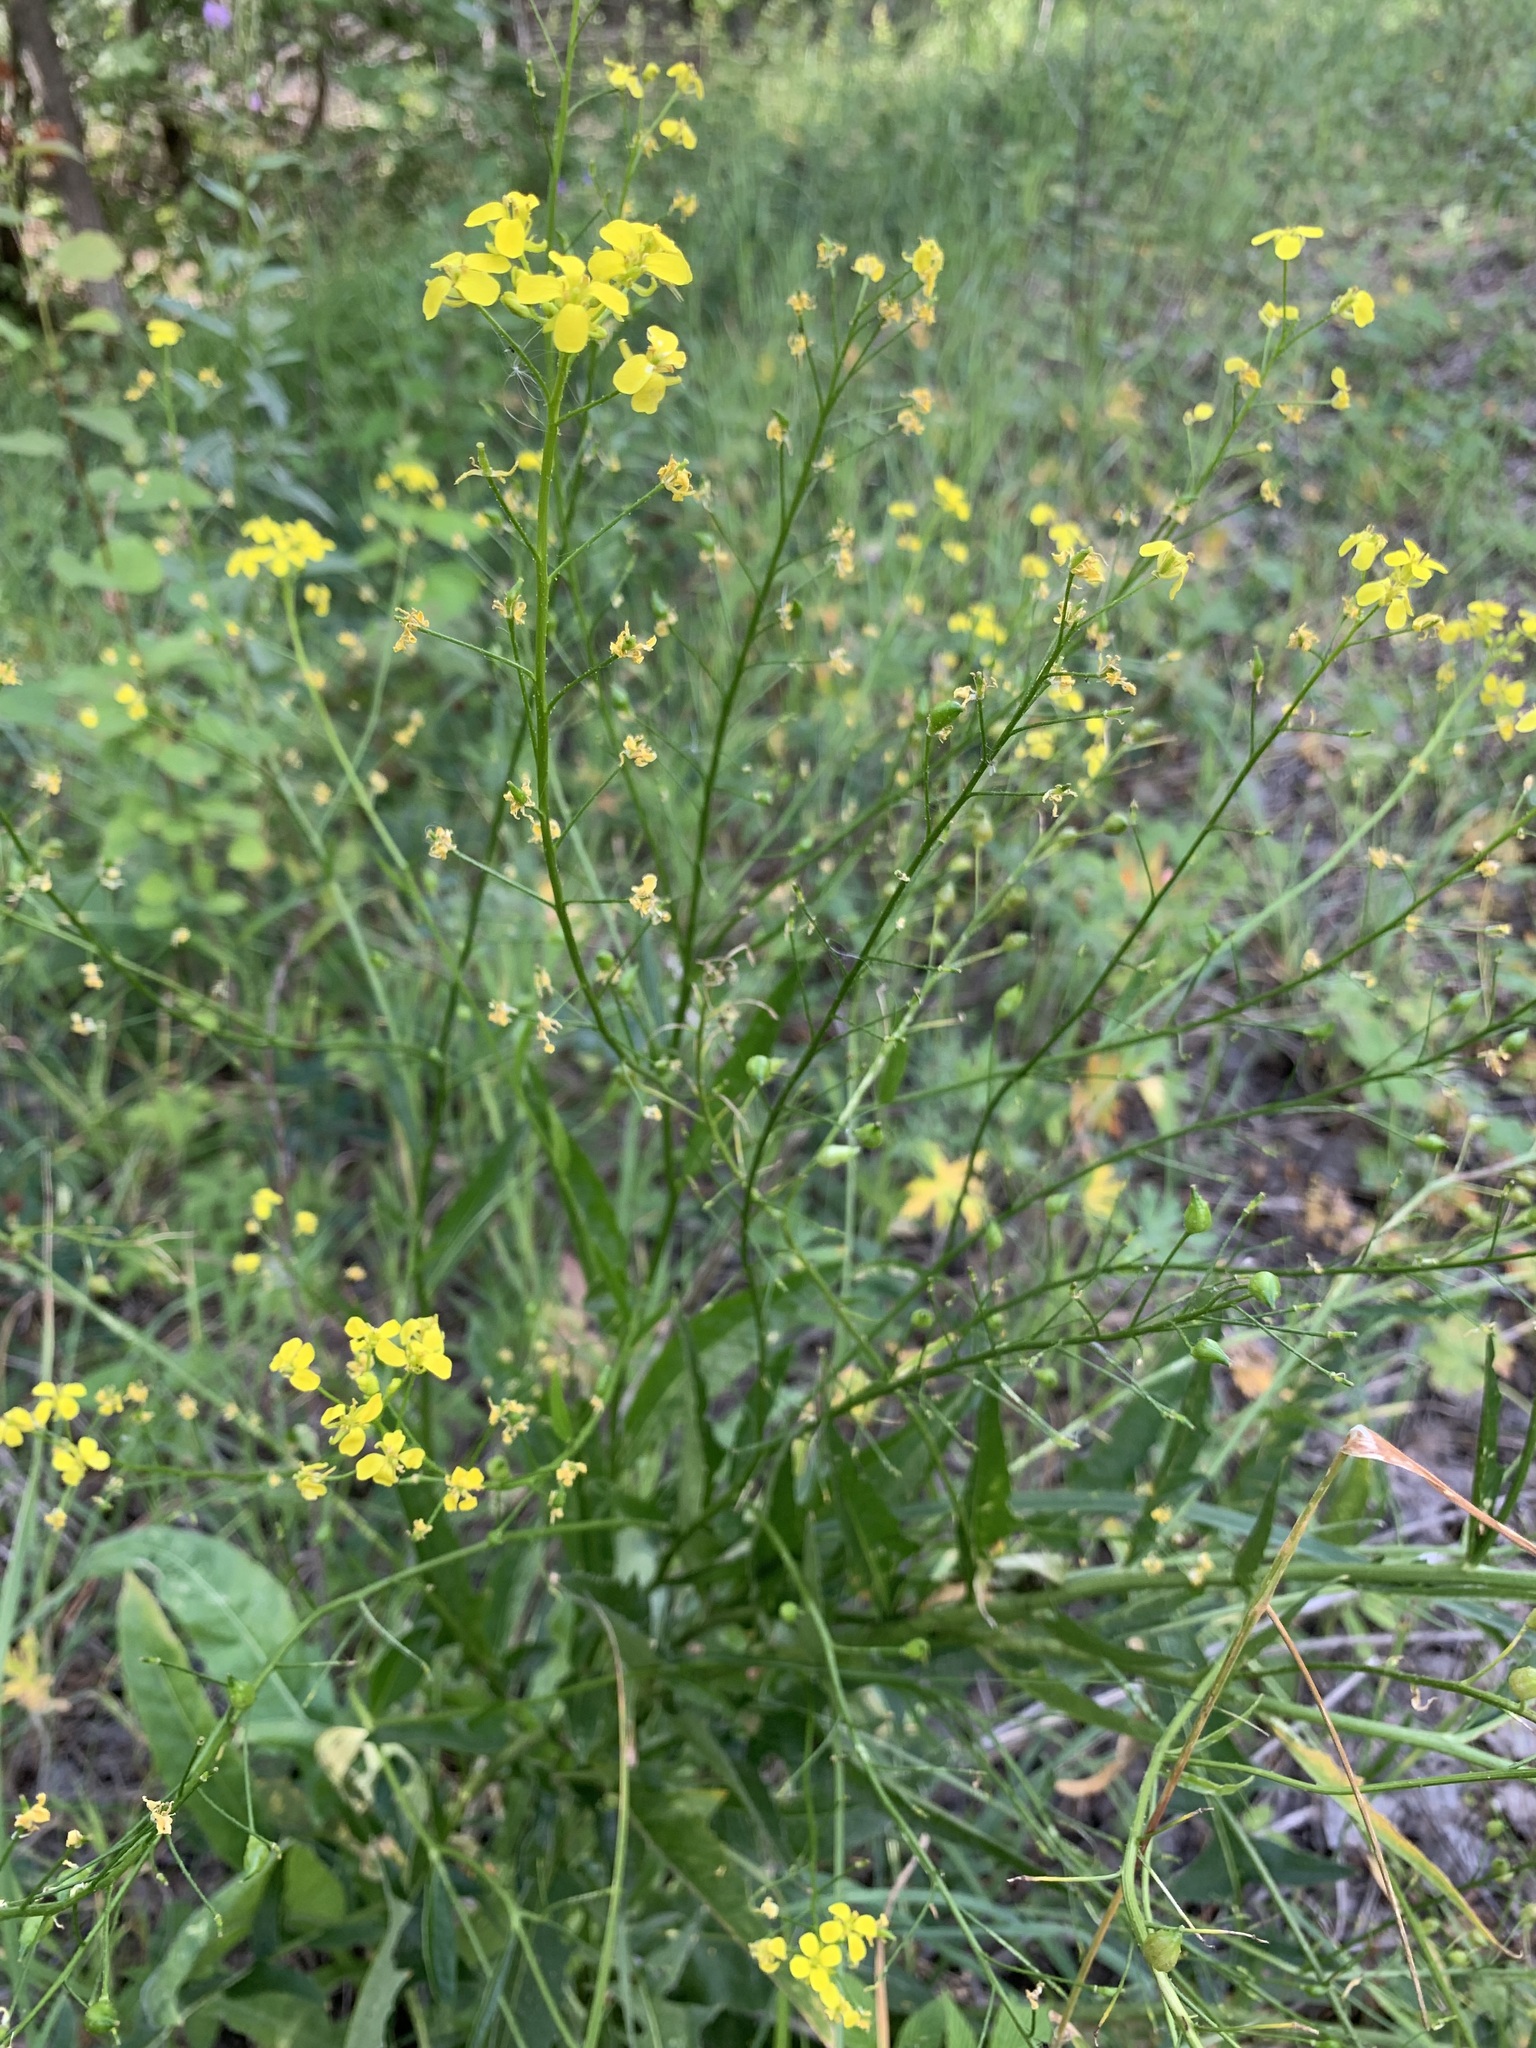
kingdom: Plantae
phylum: Tracheophyta
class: Magnoliopsida
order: Brassicales
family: Brassicaceae
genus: Bunias
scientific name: Bunias orientalis
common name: Warty-cabbage
